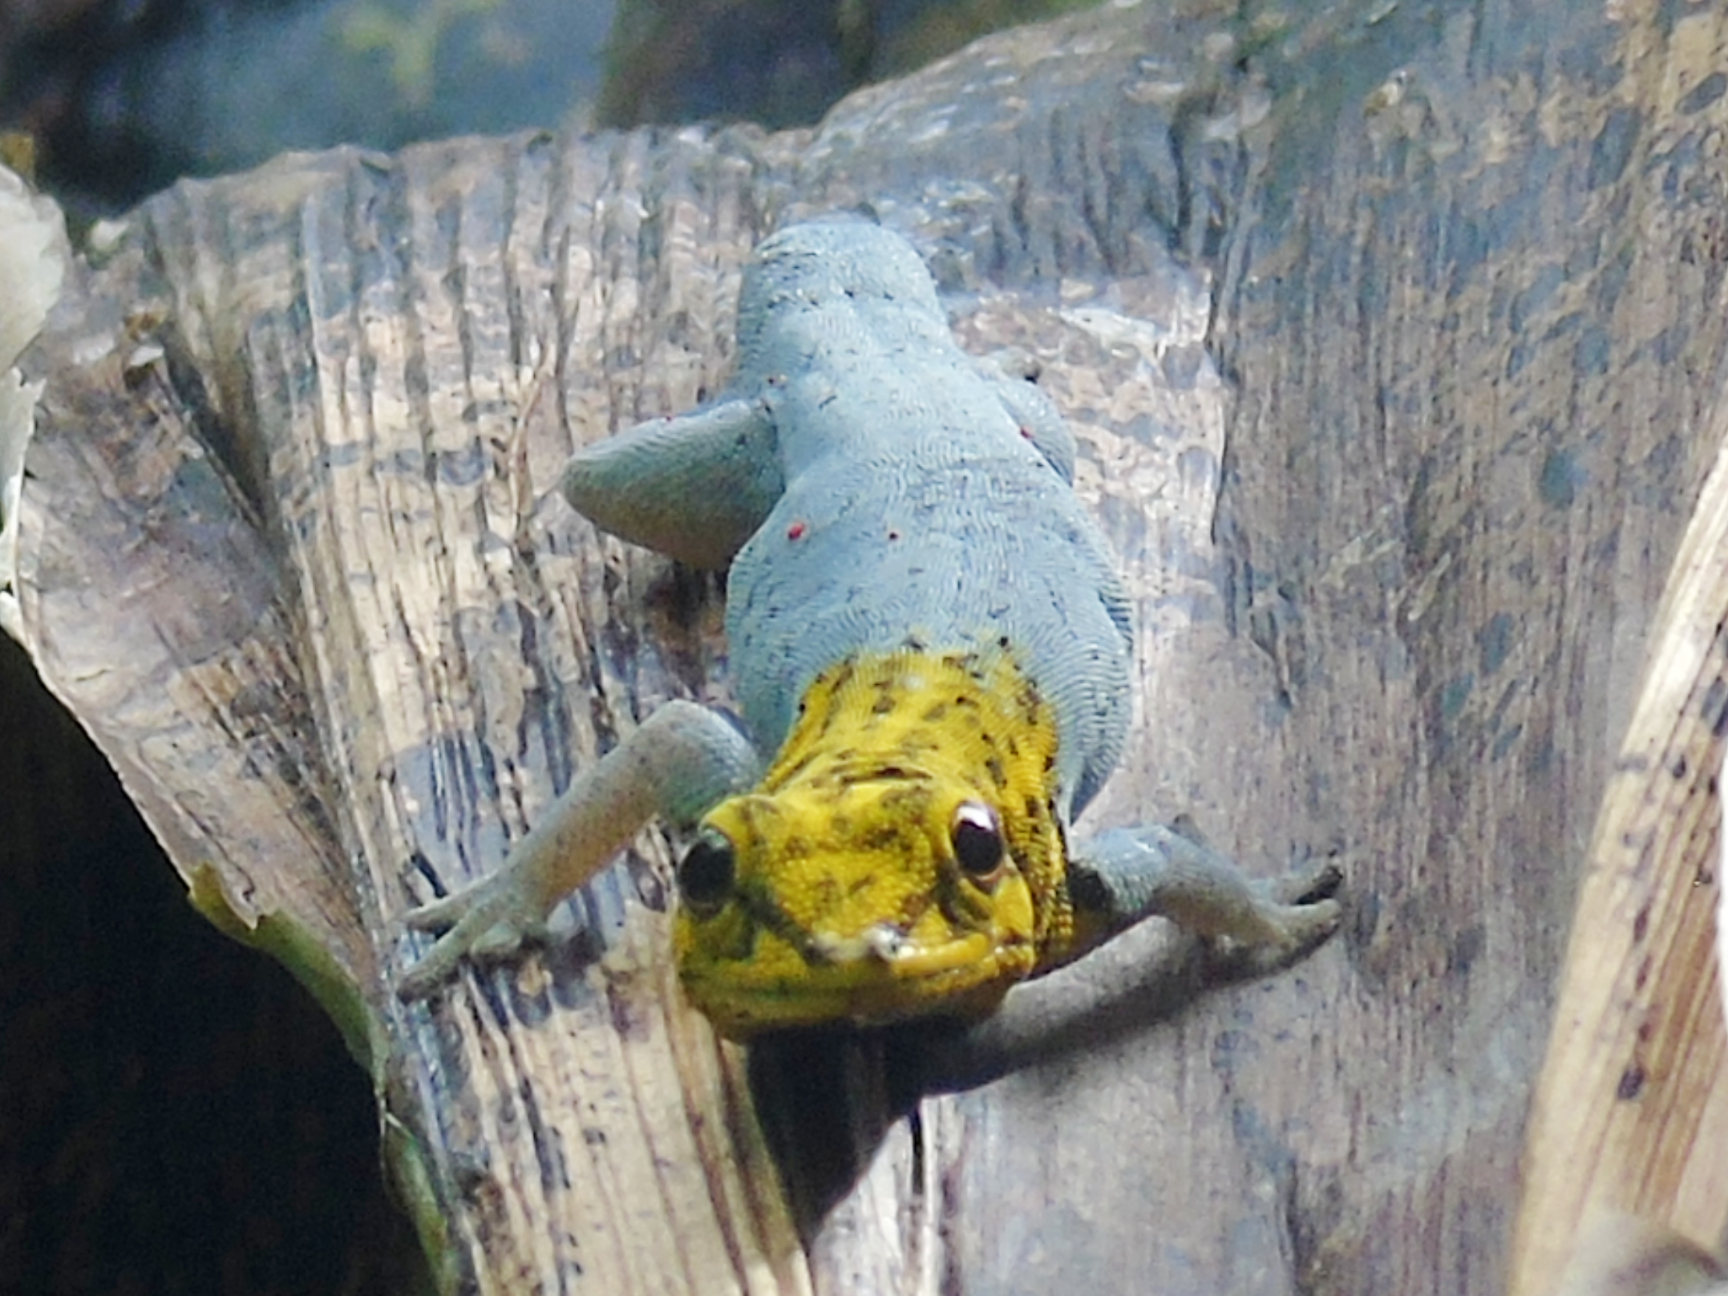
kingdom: Animalia
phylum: Chordata
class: Squamata
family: Gekkonidae
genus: Lygodactylus
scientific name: Lygodactylus picturatus
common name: Painted dwarf gecko
